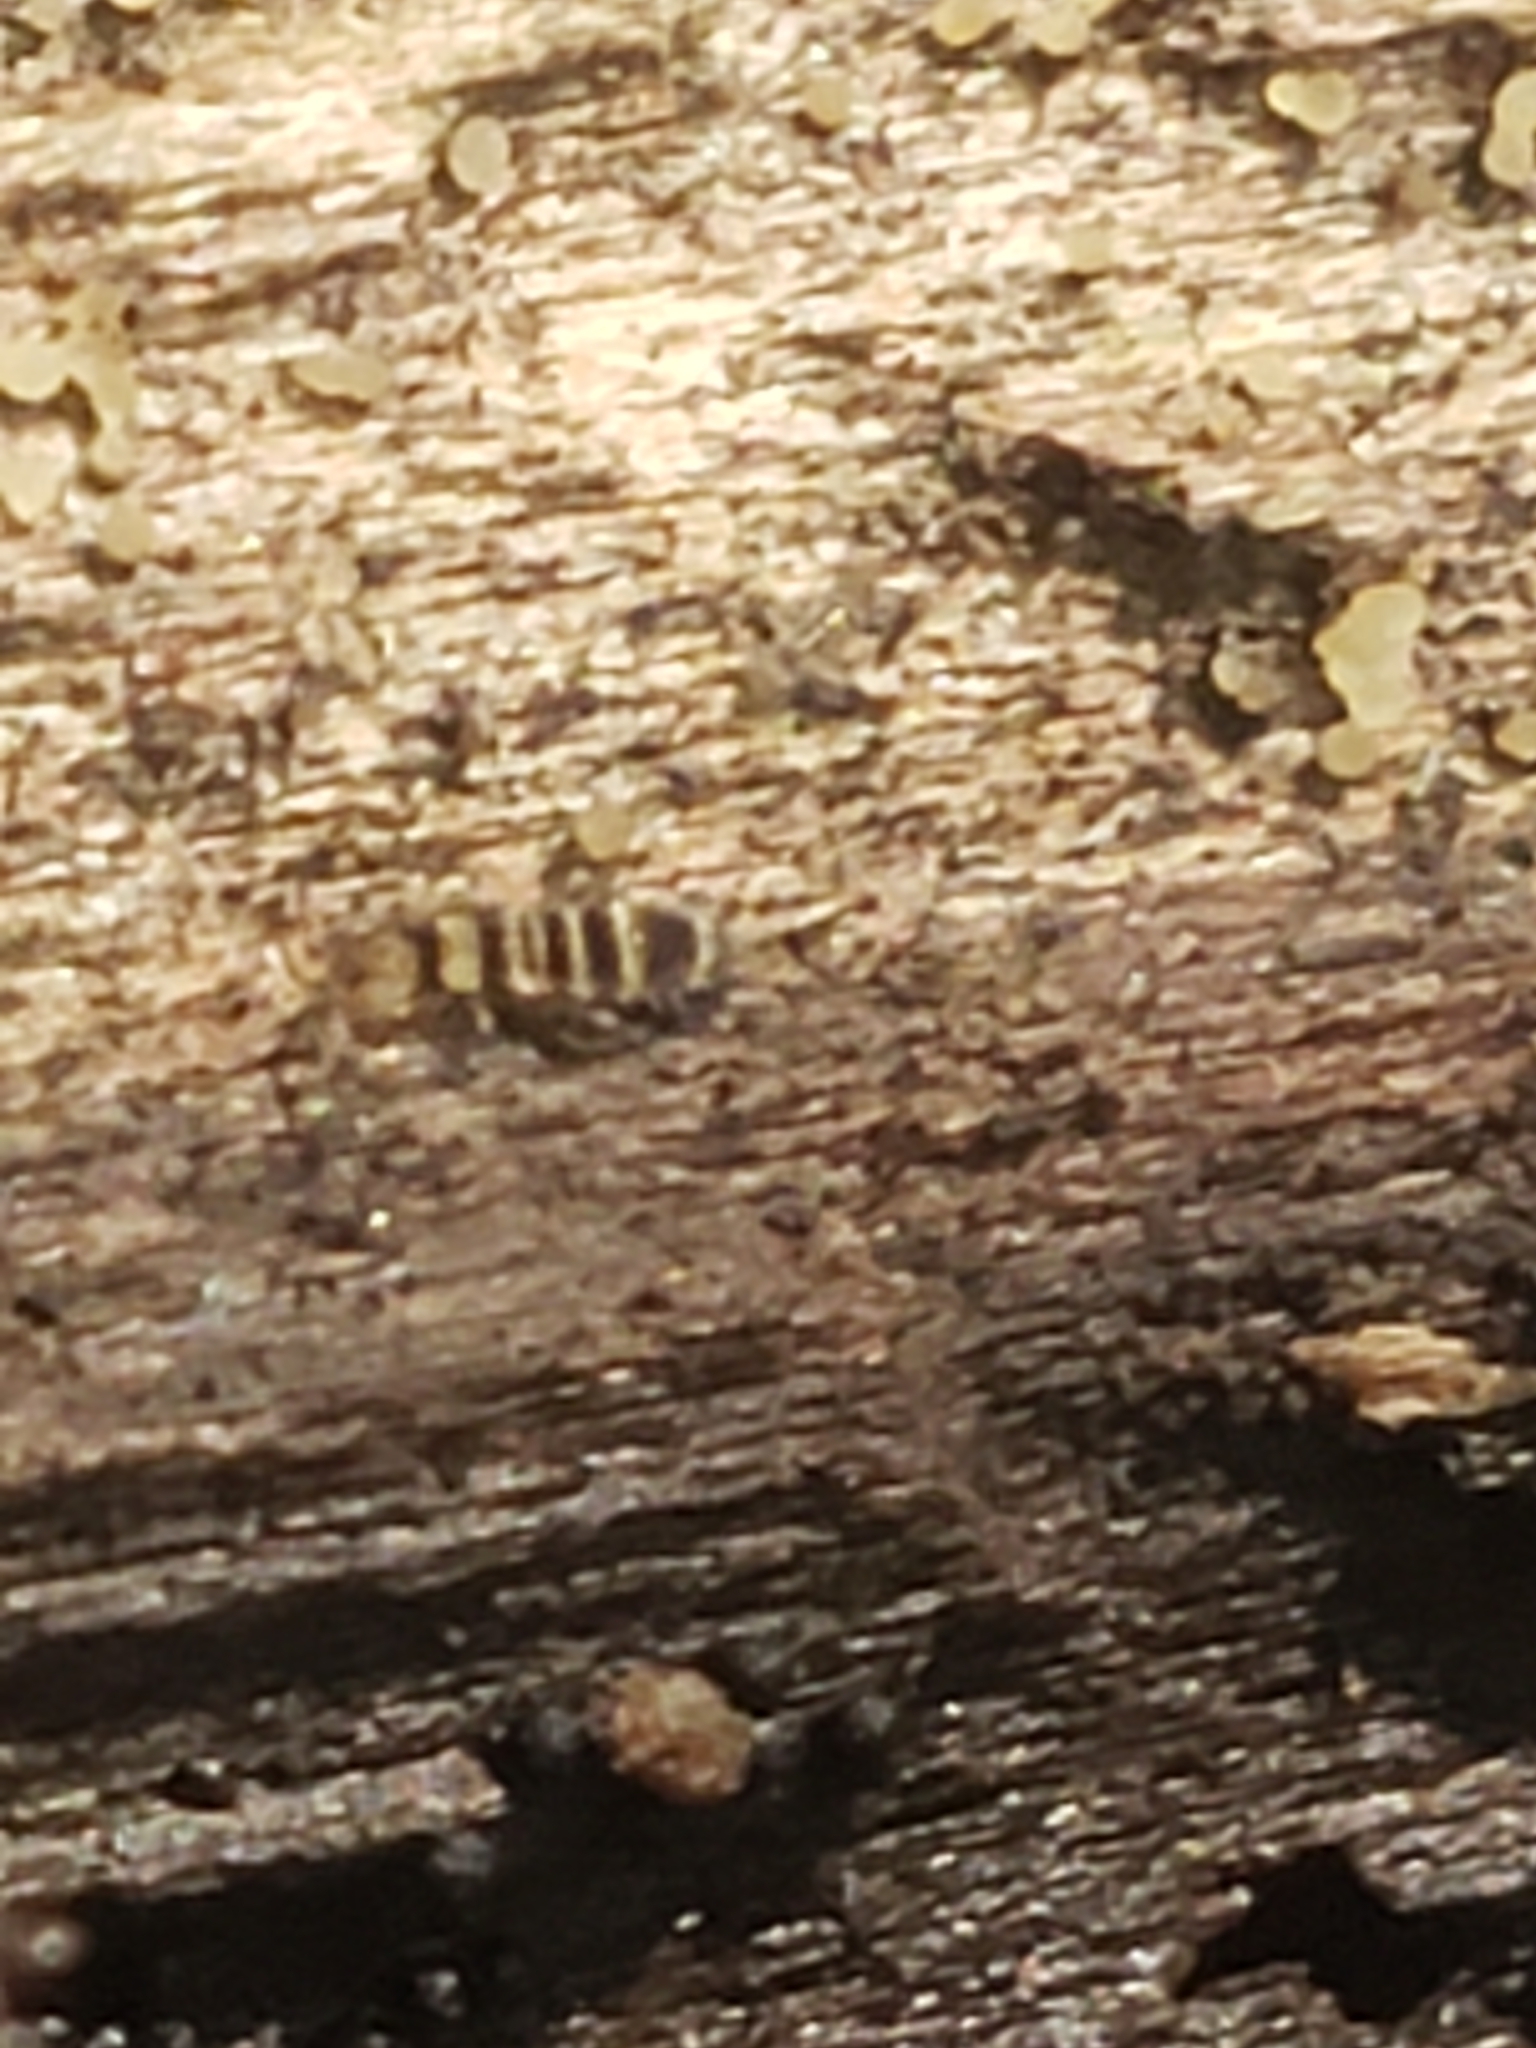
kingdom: Animalia
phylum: Arthropoda
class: Collembola
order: Entomobryomorpha
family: Orchesellidae
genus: Orchesella
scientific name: Orchesella hexfasciata
